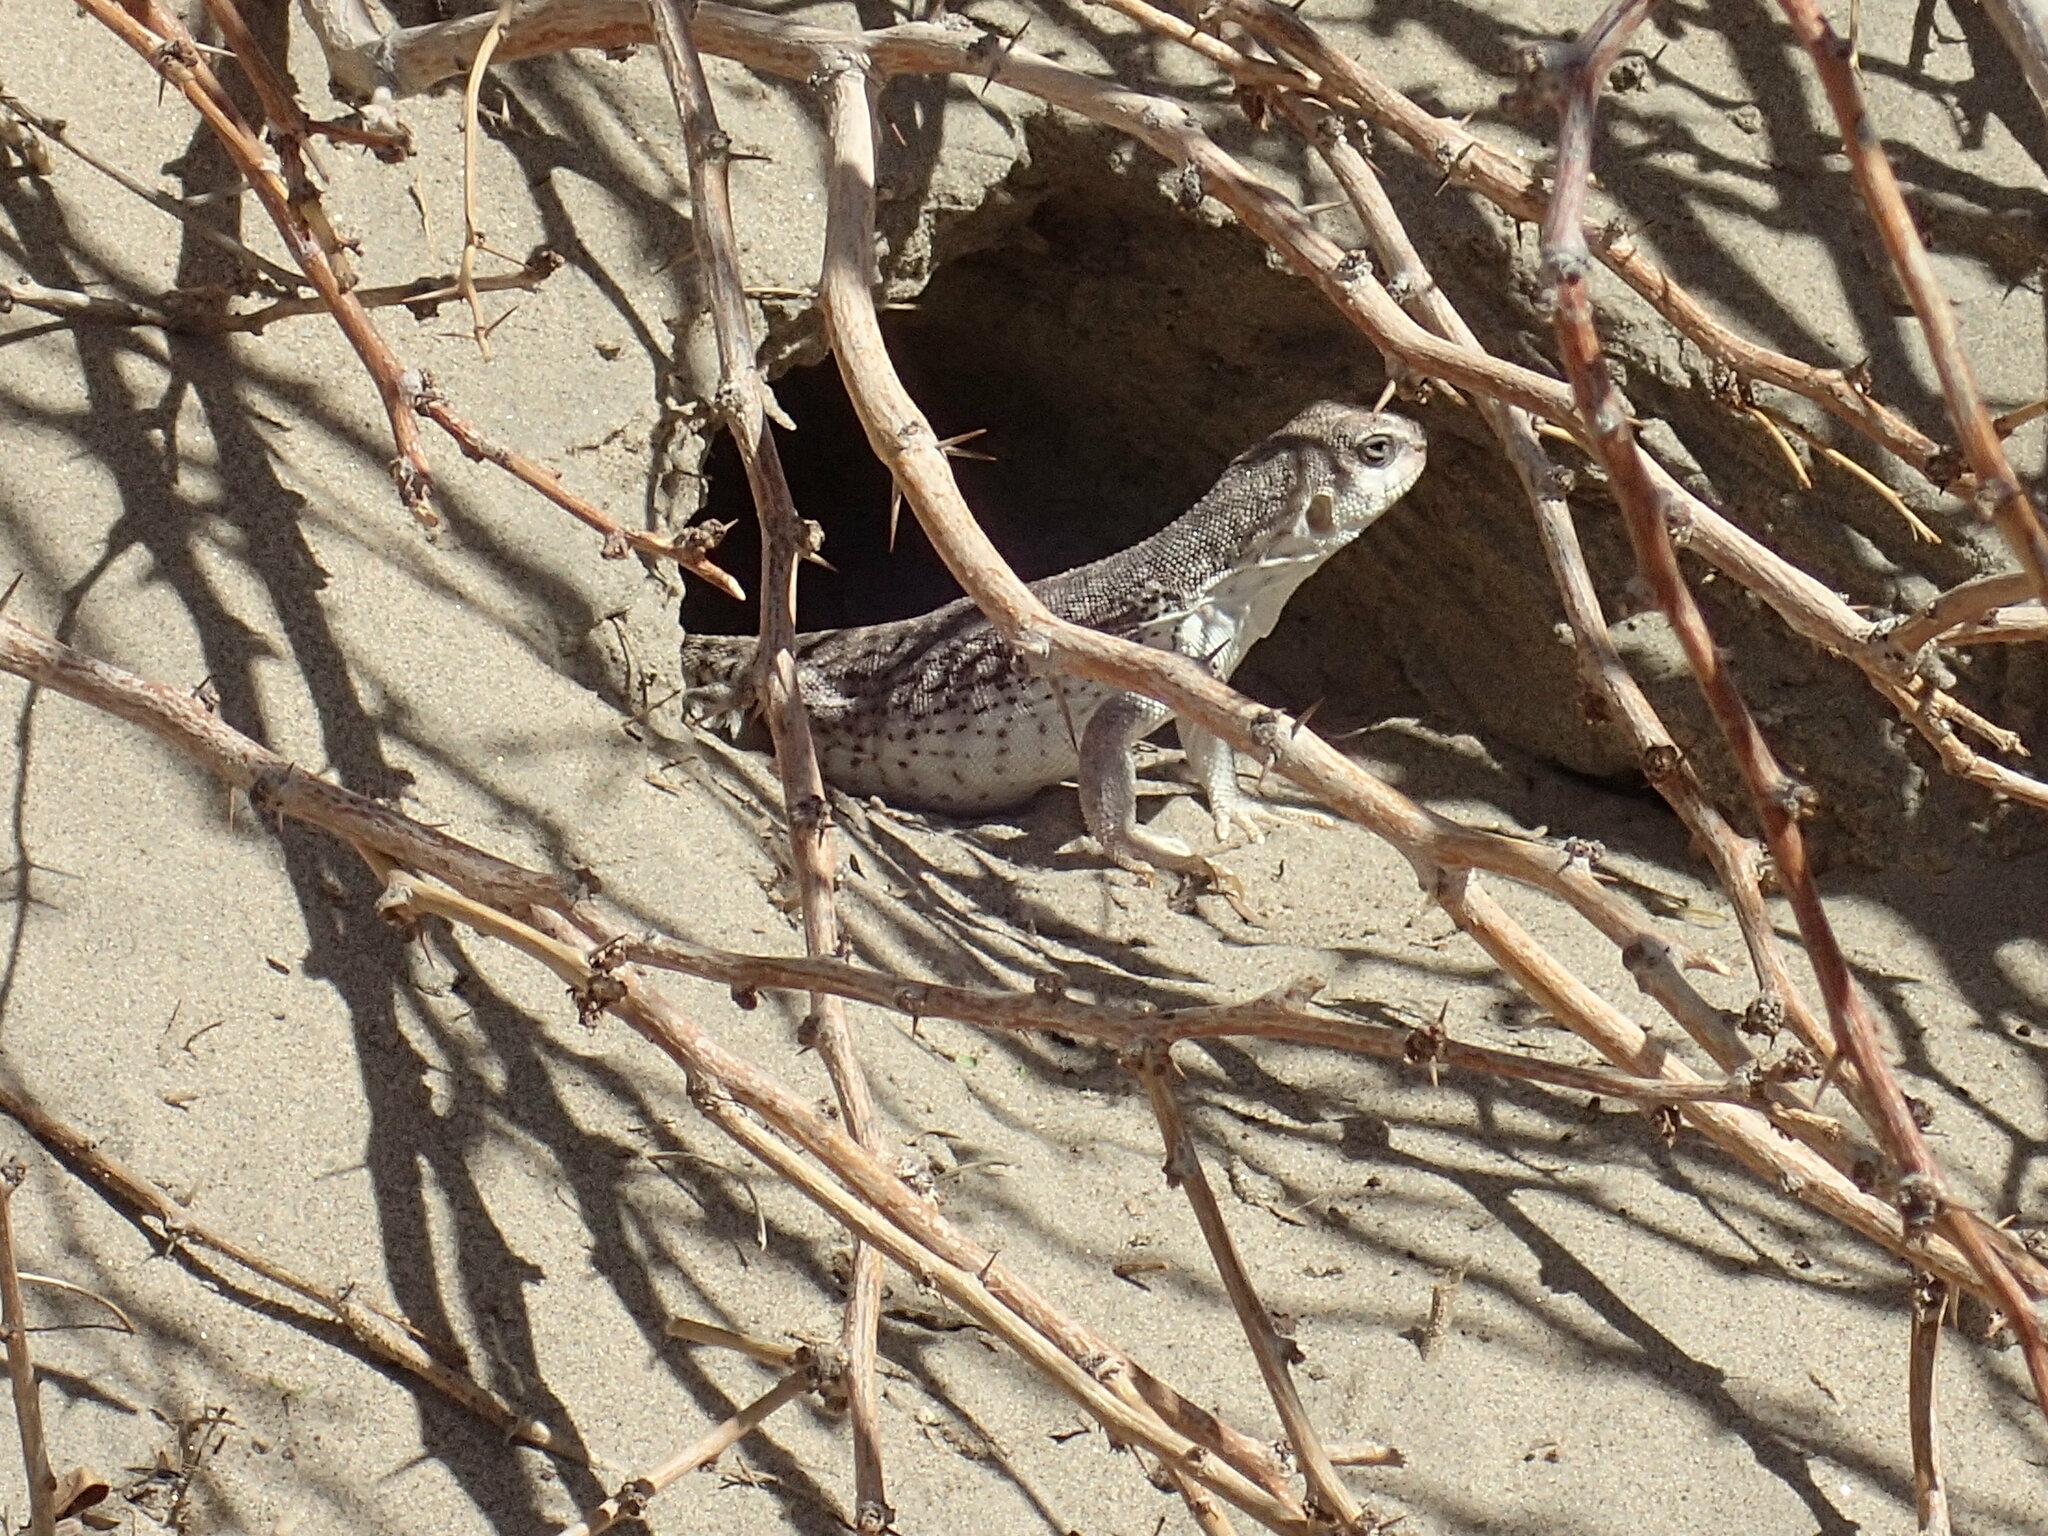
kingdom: Animalia
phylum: Chordata
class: Squamata
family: Iguanidae
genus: Dipsosaurus
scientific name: Dipsosaurus dorsalis
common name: Desert iguana
